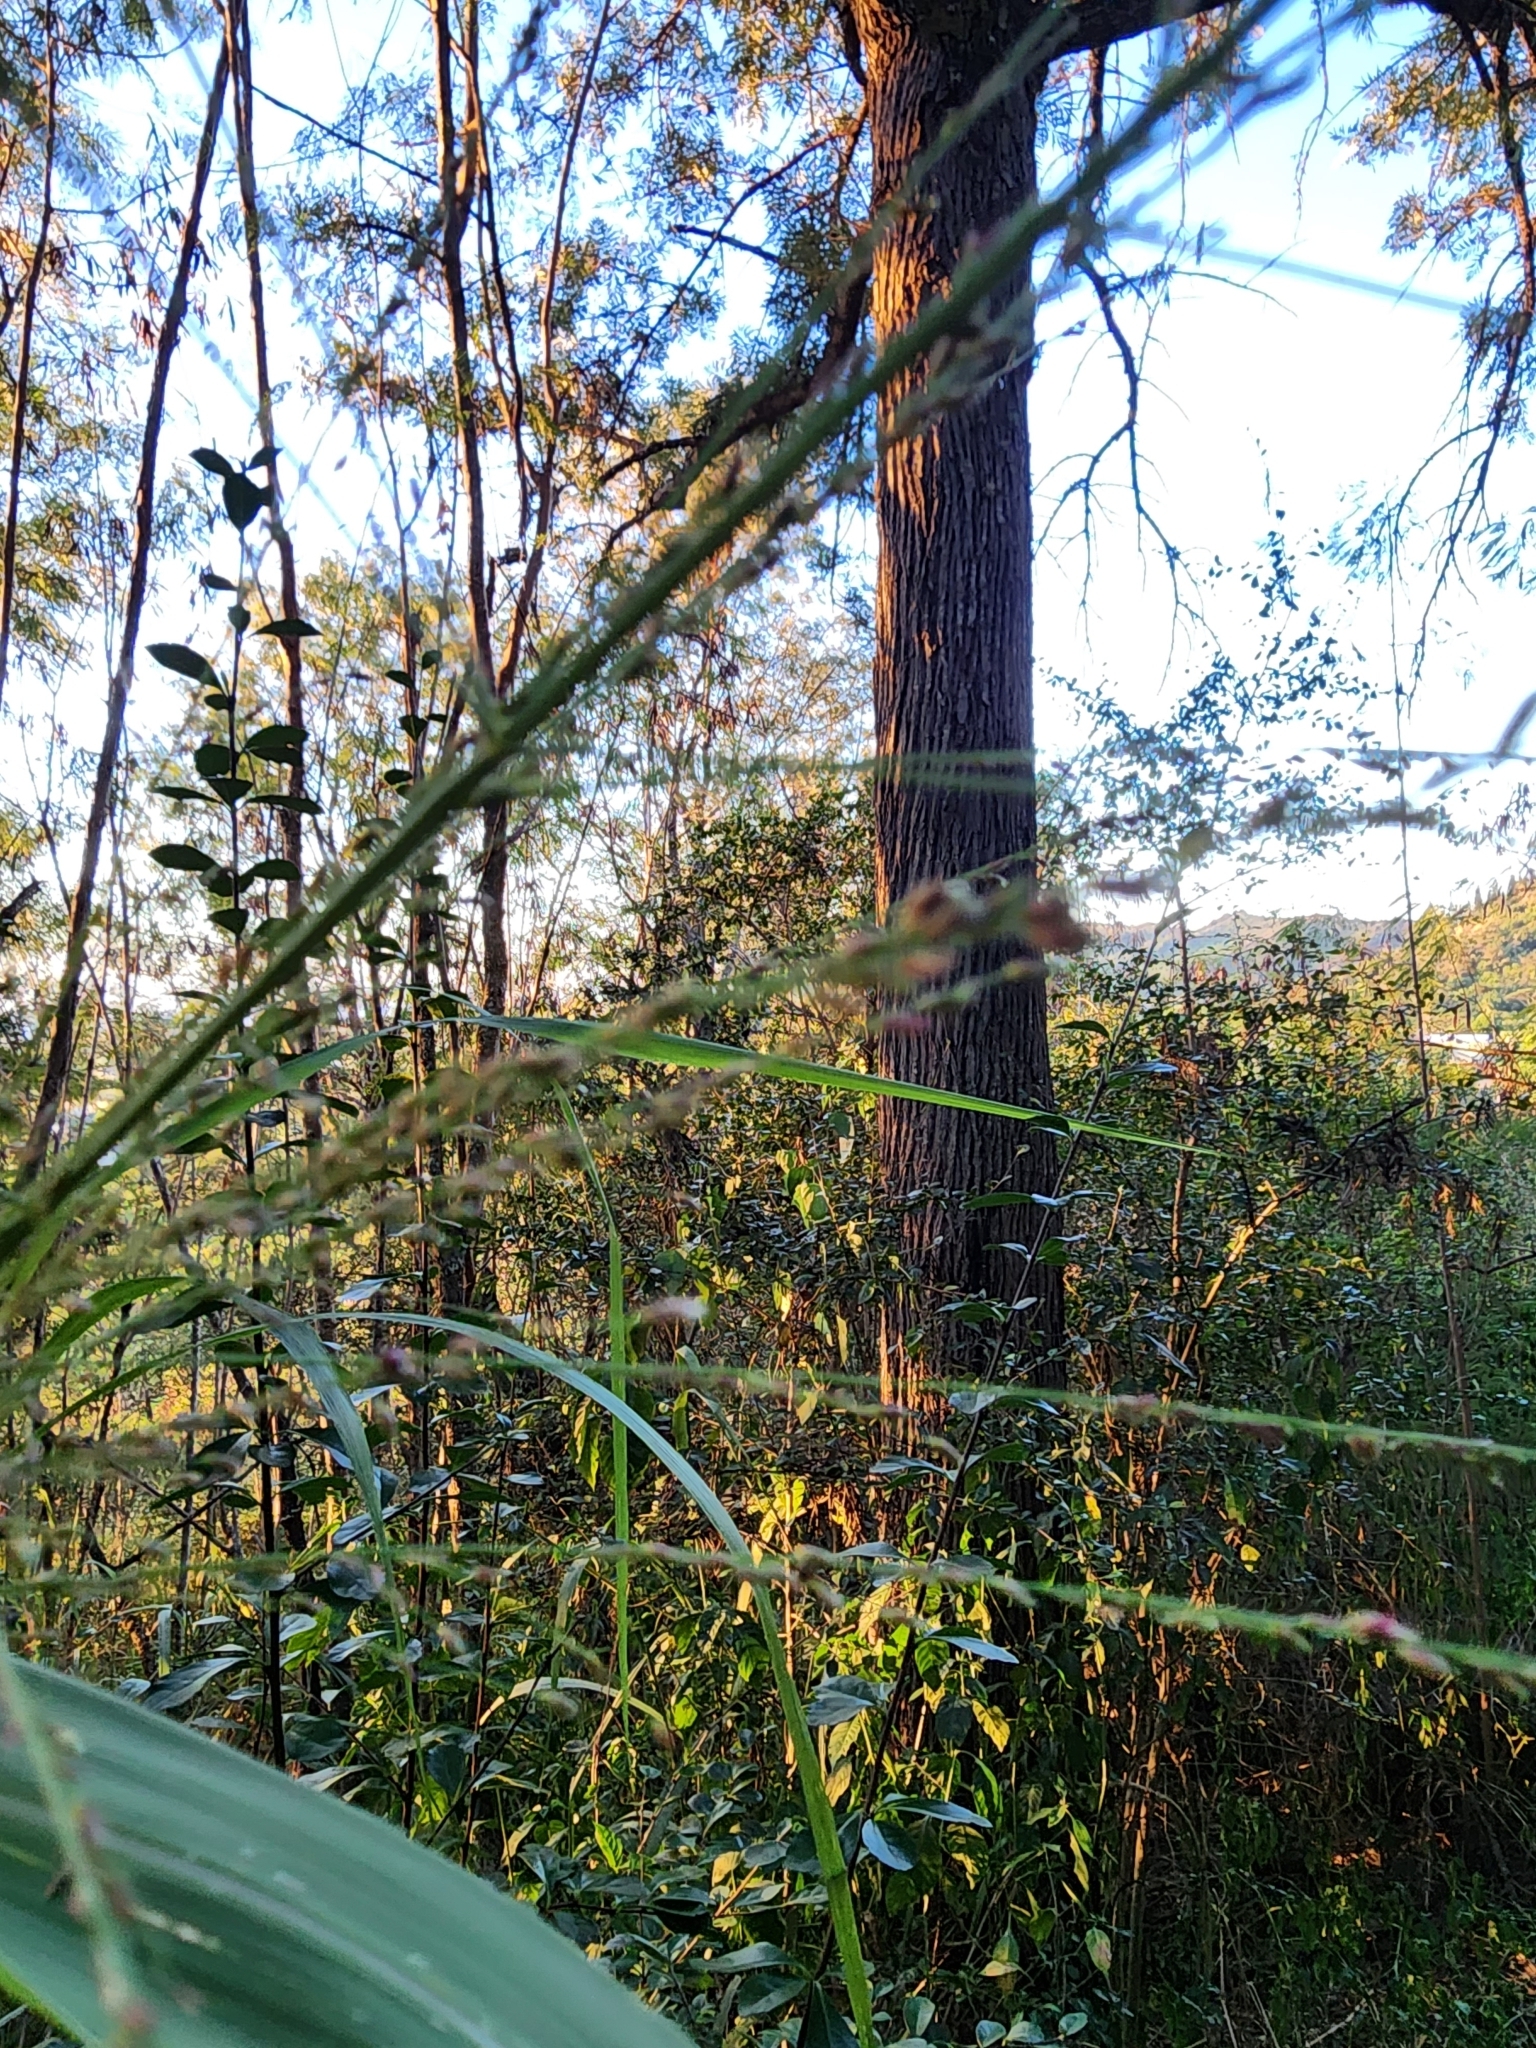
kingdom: Plantae
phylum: Tracheophyta
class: Liliopsida
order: Poales
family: Poaceae
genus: Megathyrsus
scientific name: Megathyrsus maximus
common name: Guineagrass
